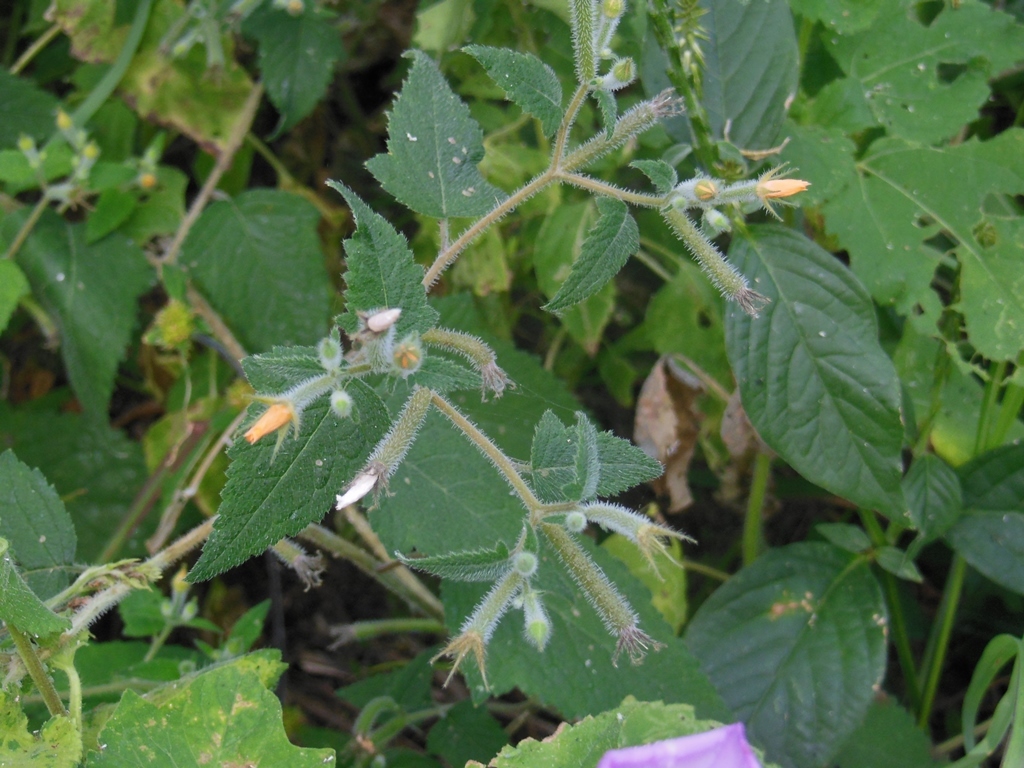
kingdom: Plantae
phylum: Tracheophyta
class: Magnoliopsida
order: Cornales
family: Loasaceae
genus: Mentzelia
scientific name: Mentzelia aspera
